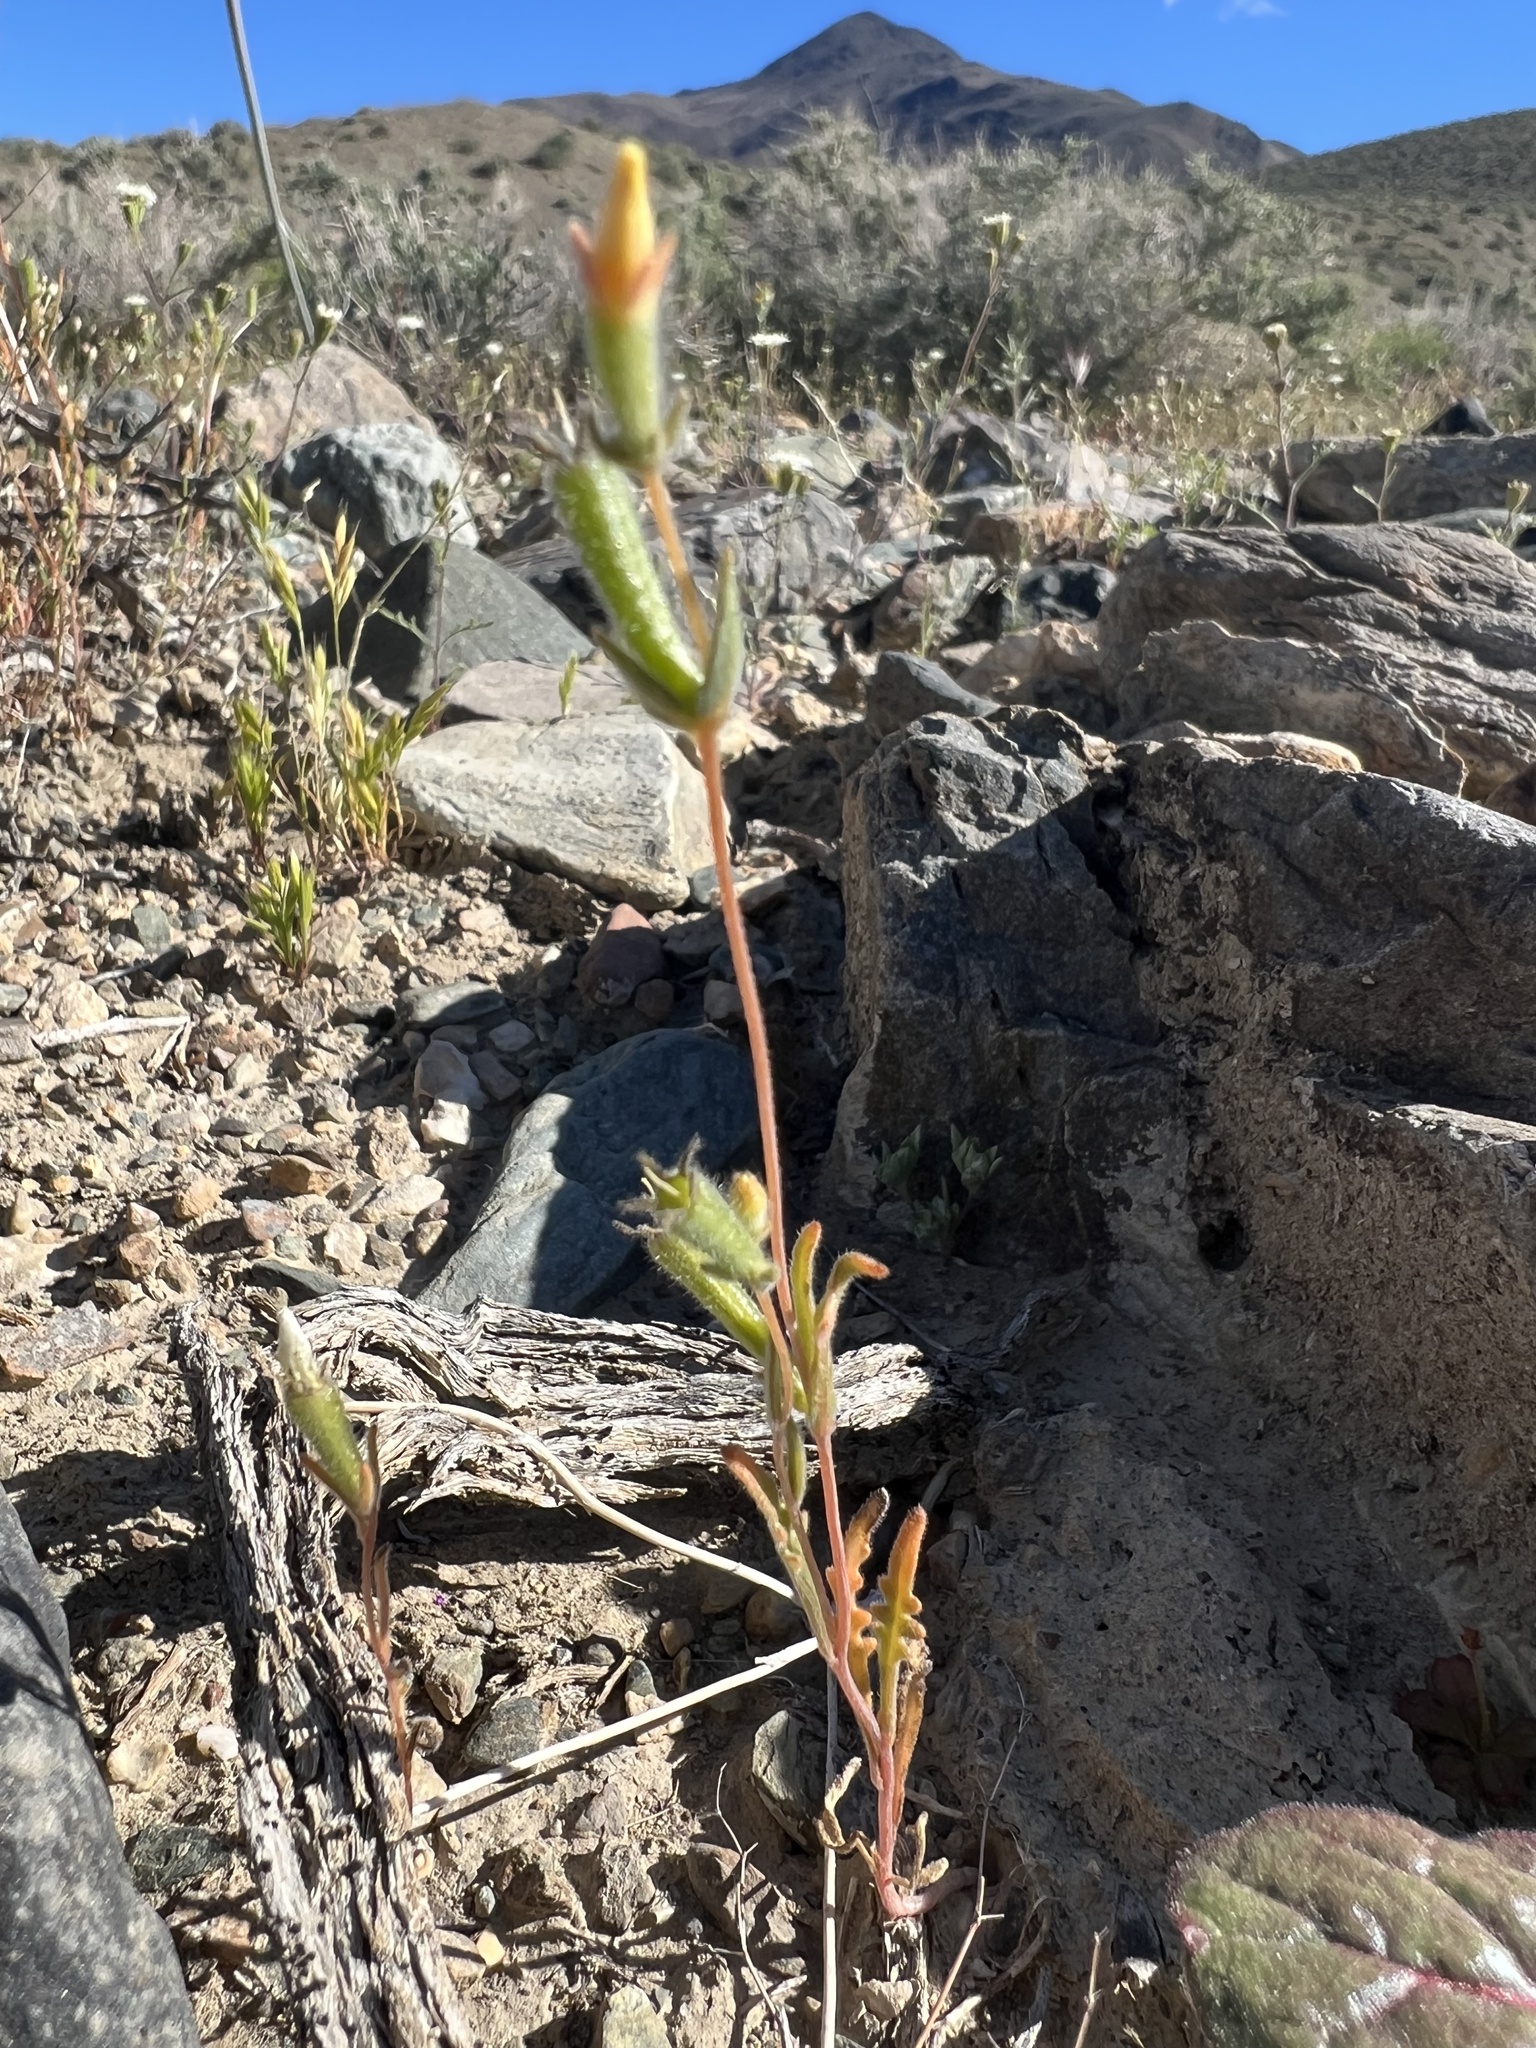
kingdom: Plantae
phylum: Tracheophyta
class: Magnoliopsida
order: Cornales
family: Loasaceae
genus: Mentzelia
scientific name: Mentzelia albicaulis
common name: White-stem blazingstar
